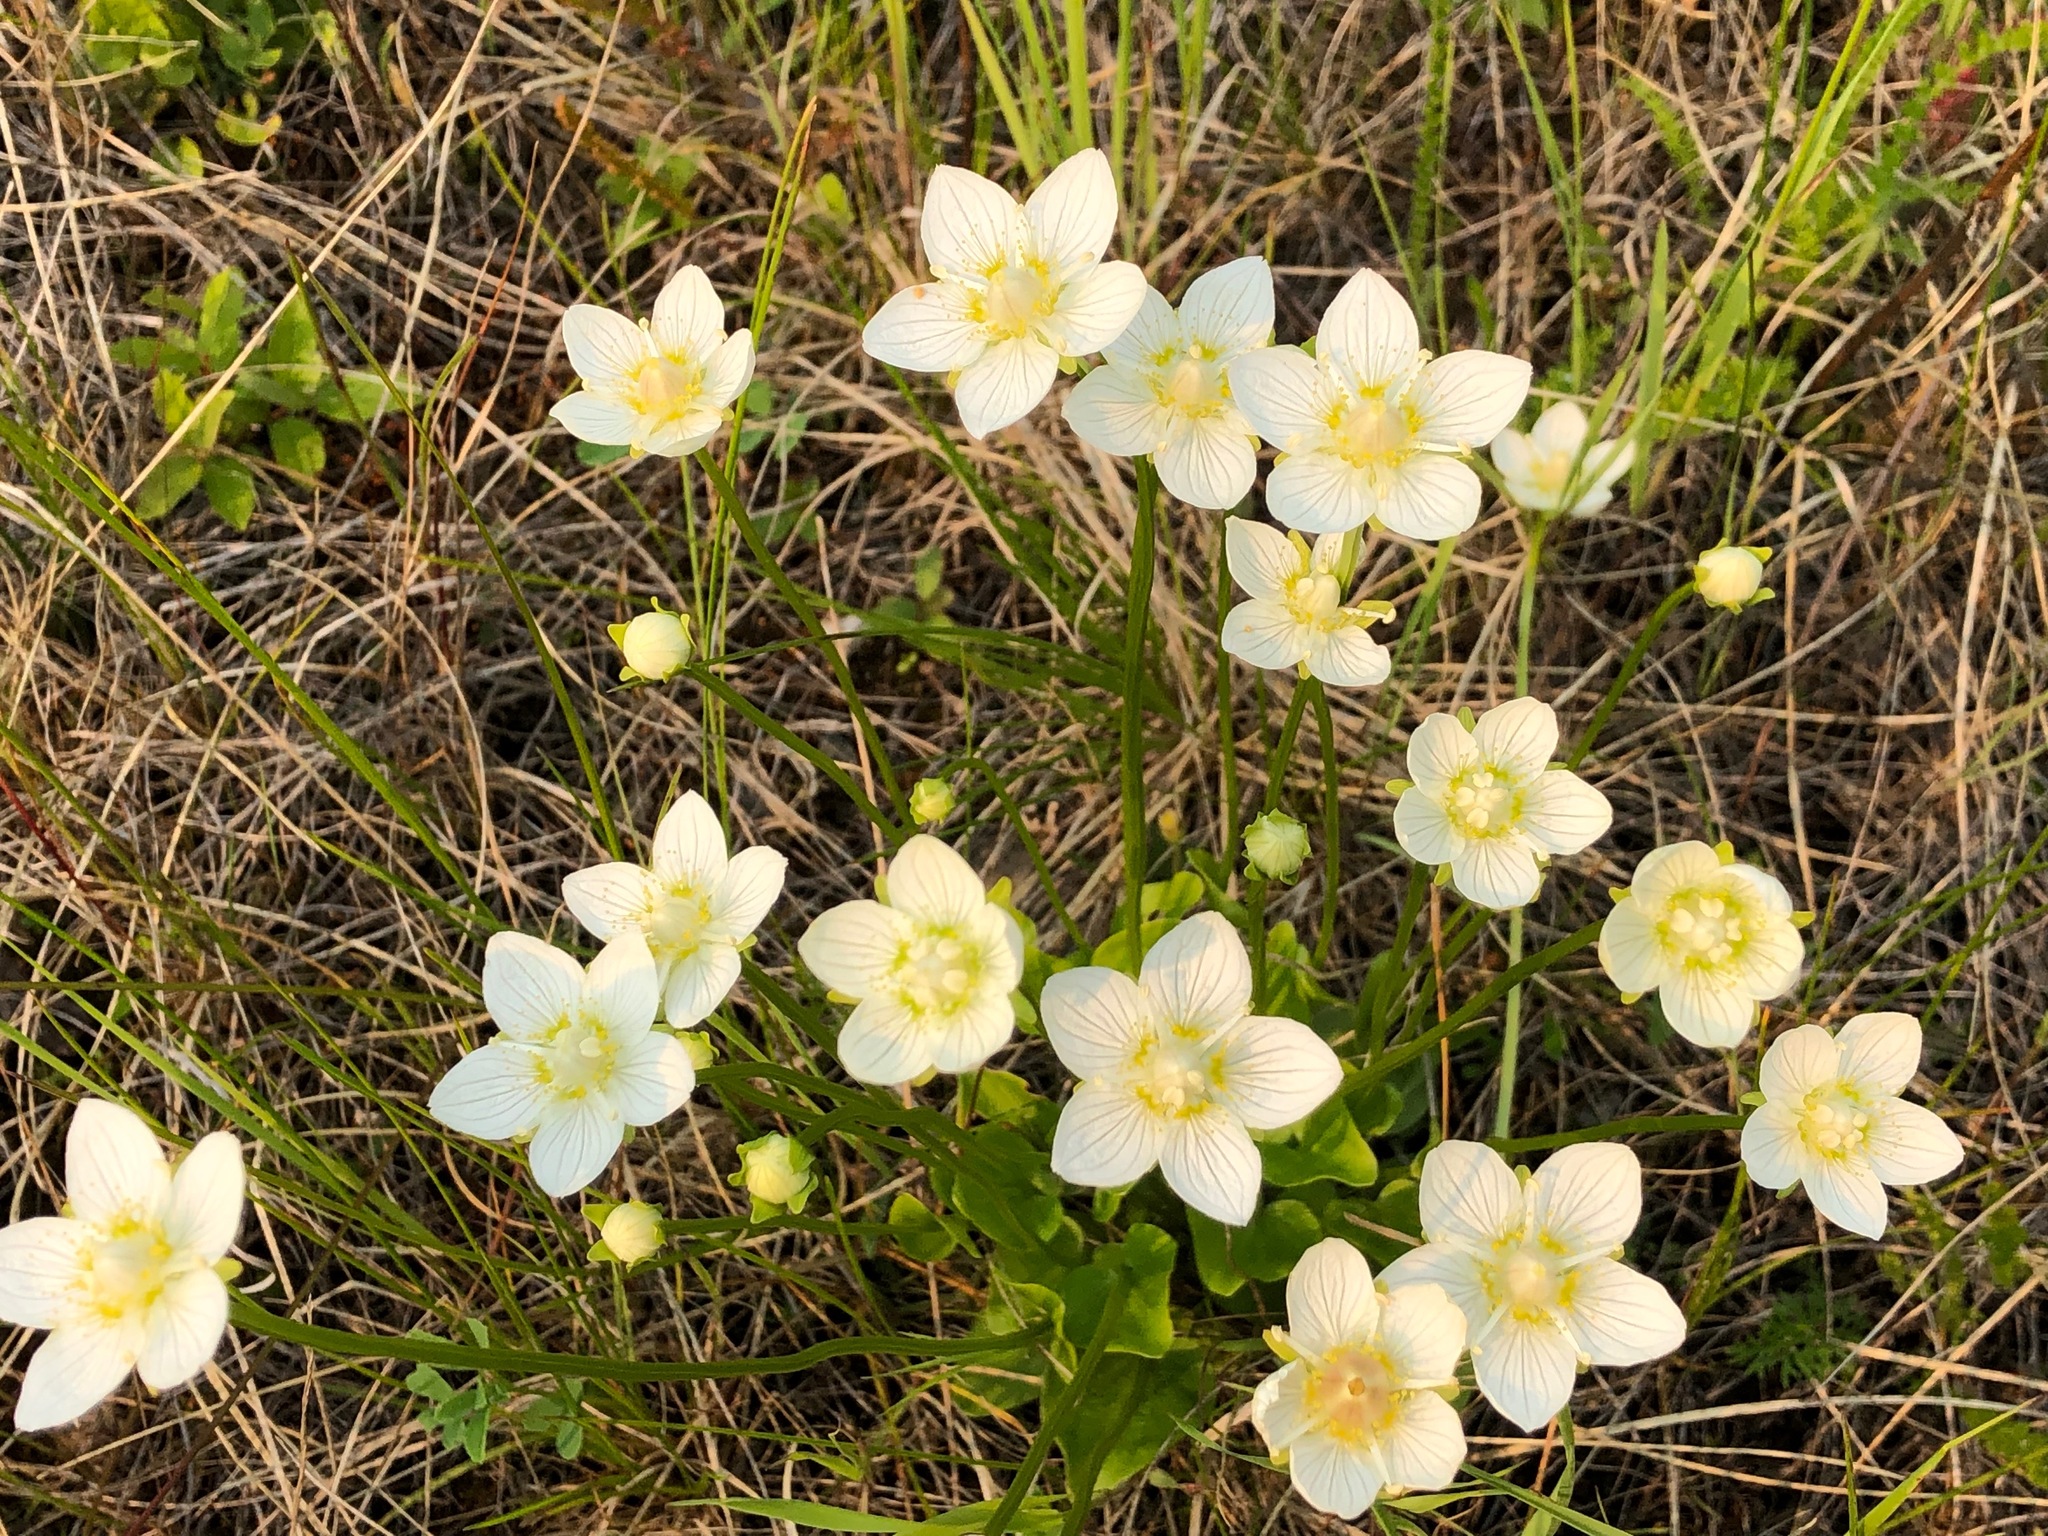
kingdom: Plantae
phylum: Tracheophyta
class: Magnoliopsida
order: Celastrales
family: Parnassiaceae
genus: Parnassia
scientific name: Parnassia palustris
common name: Grass-of-parnassus
